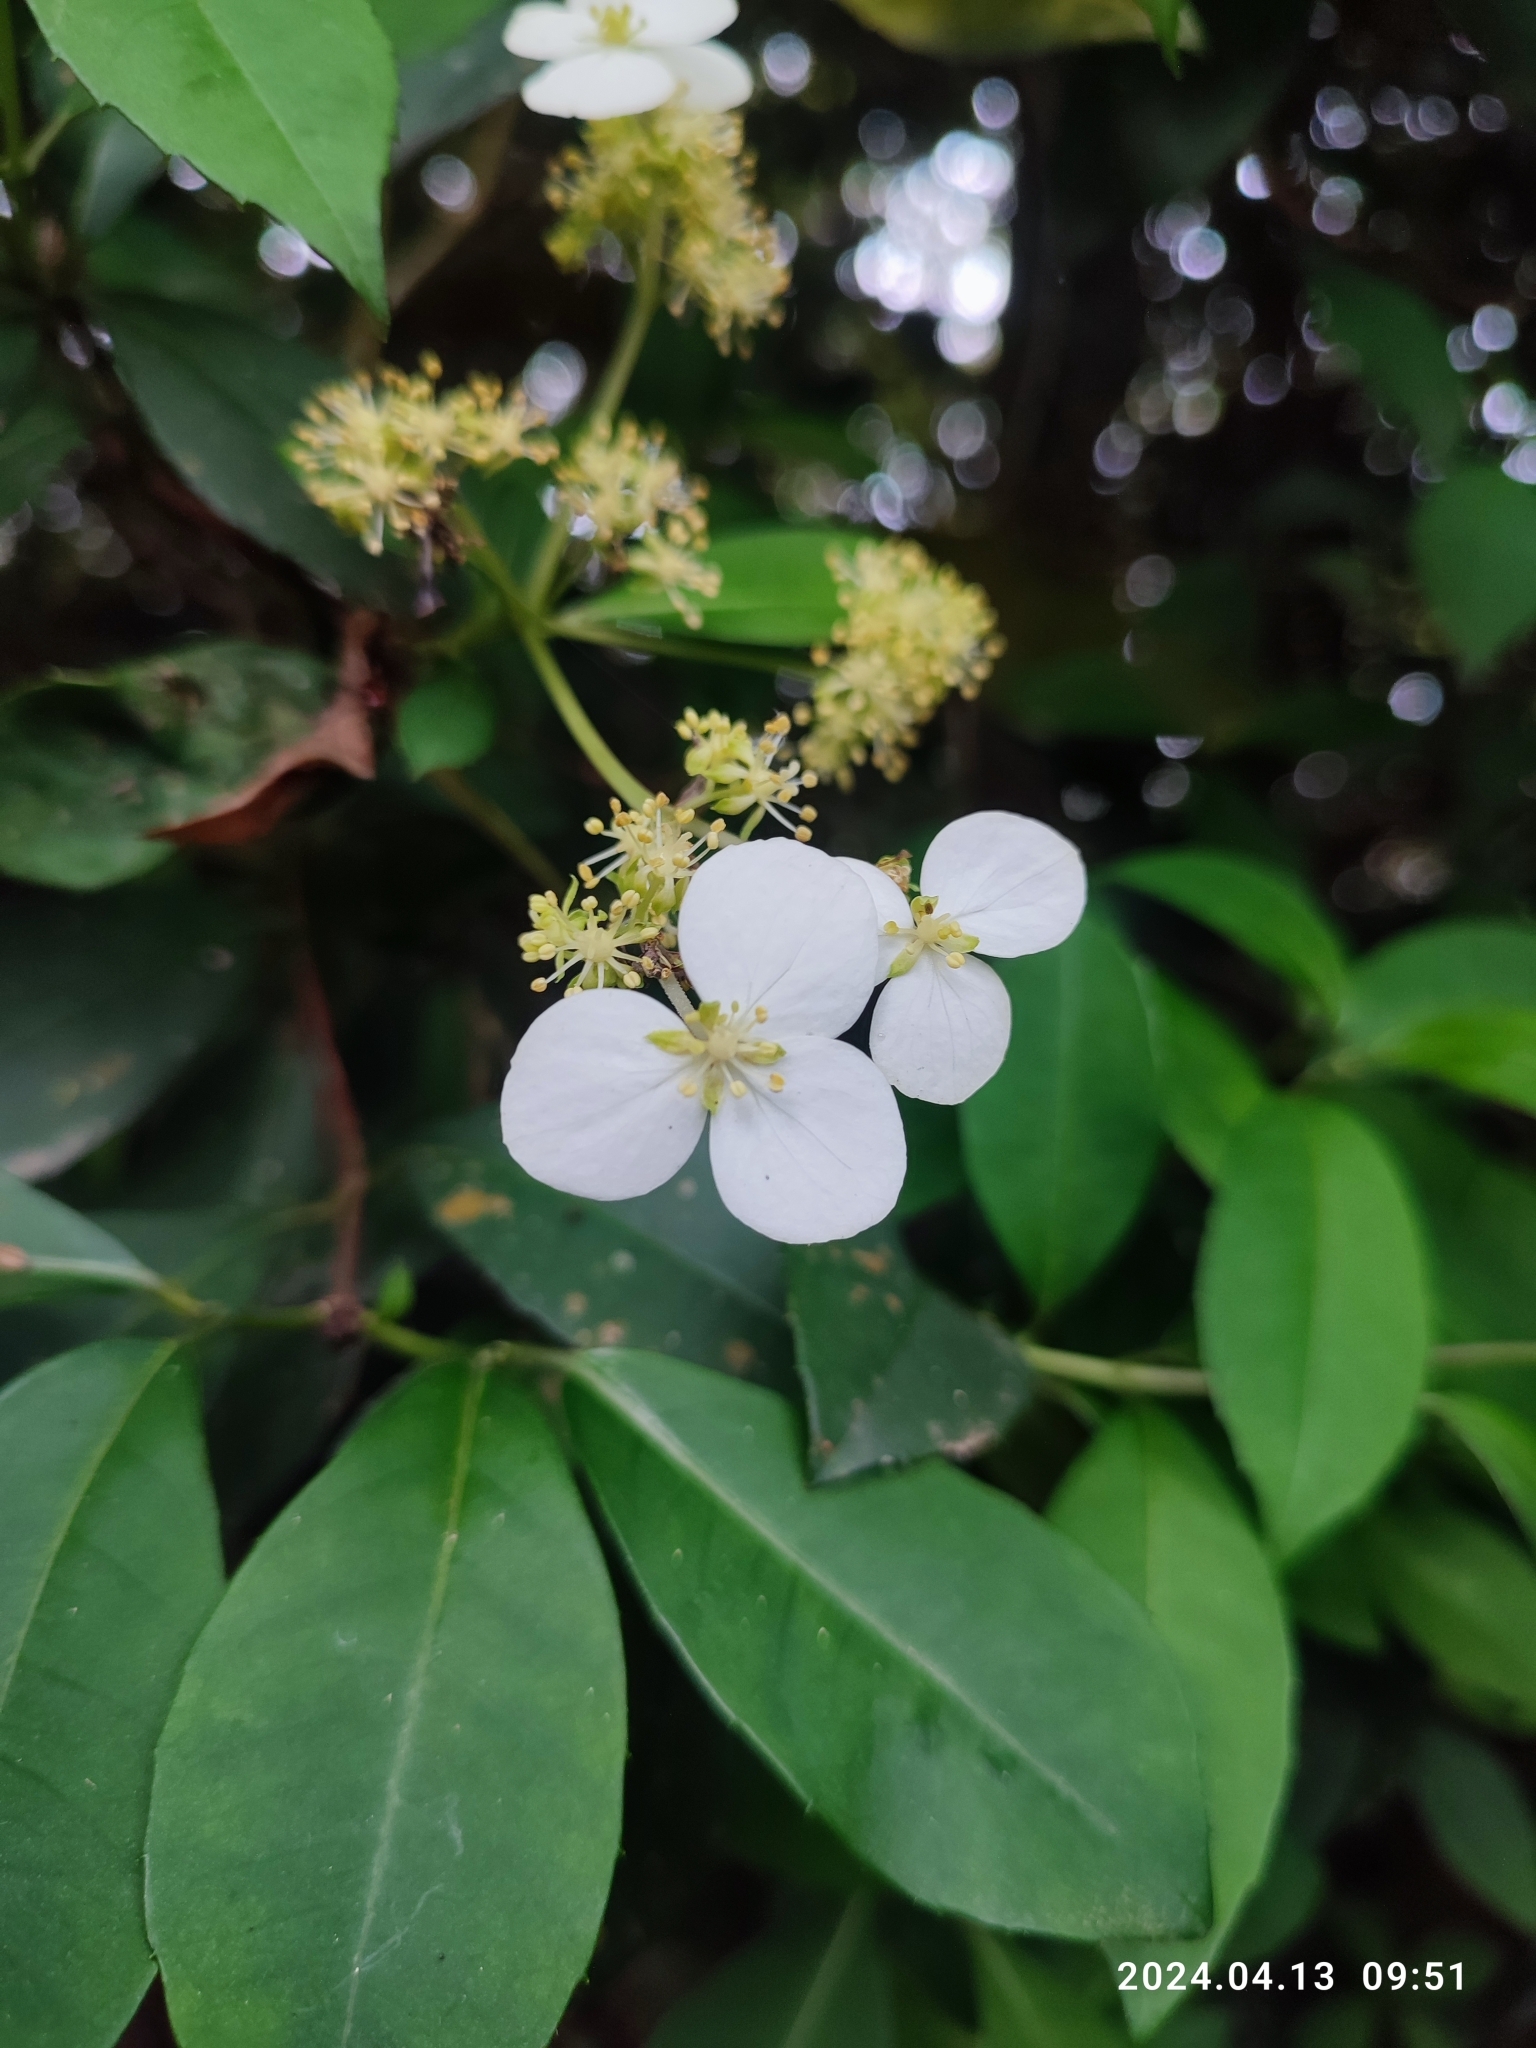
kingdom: Plantae
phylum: Tracheophyta
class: Magnoliopsida
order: Cornales
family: Hydrangeaceae
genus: Hydrangea
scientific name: Hydrangea chinensis
